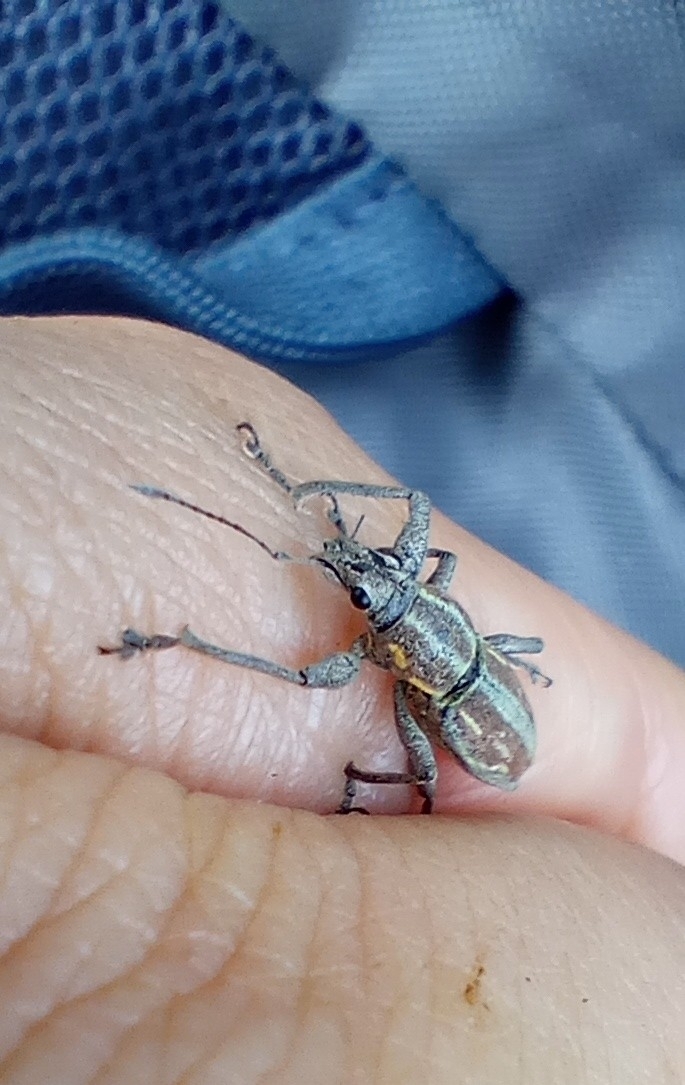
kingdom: Animalia
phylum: Arthropoda
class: Insecta
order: Coleoptera
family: Curculionidae
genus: Naupactus
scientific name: Naupactus xanthographus
